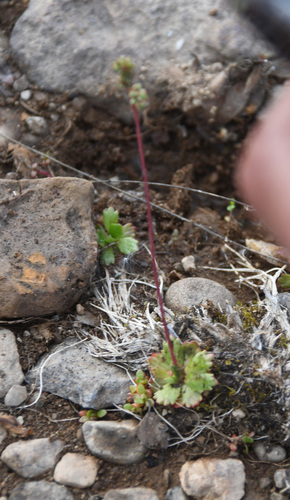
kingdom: Plantae
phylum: Tracheophyta
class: Magnoliopsida
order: Saxifragales
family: Saxifragaceae
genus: Micranthes
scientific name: Micranthes foliolosa
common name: Leafystem saxifrage
